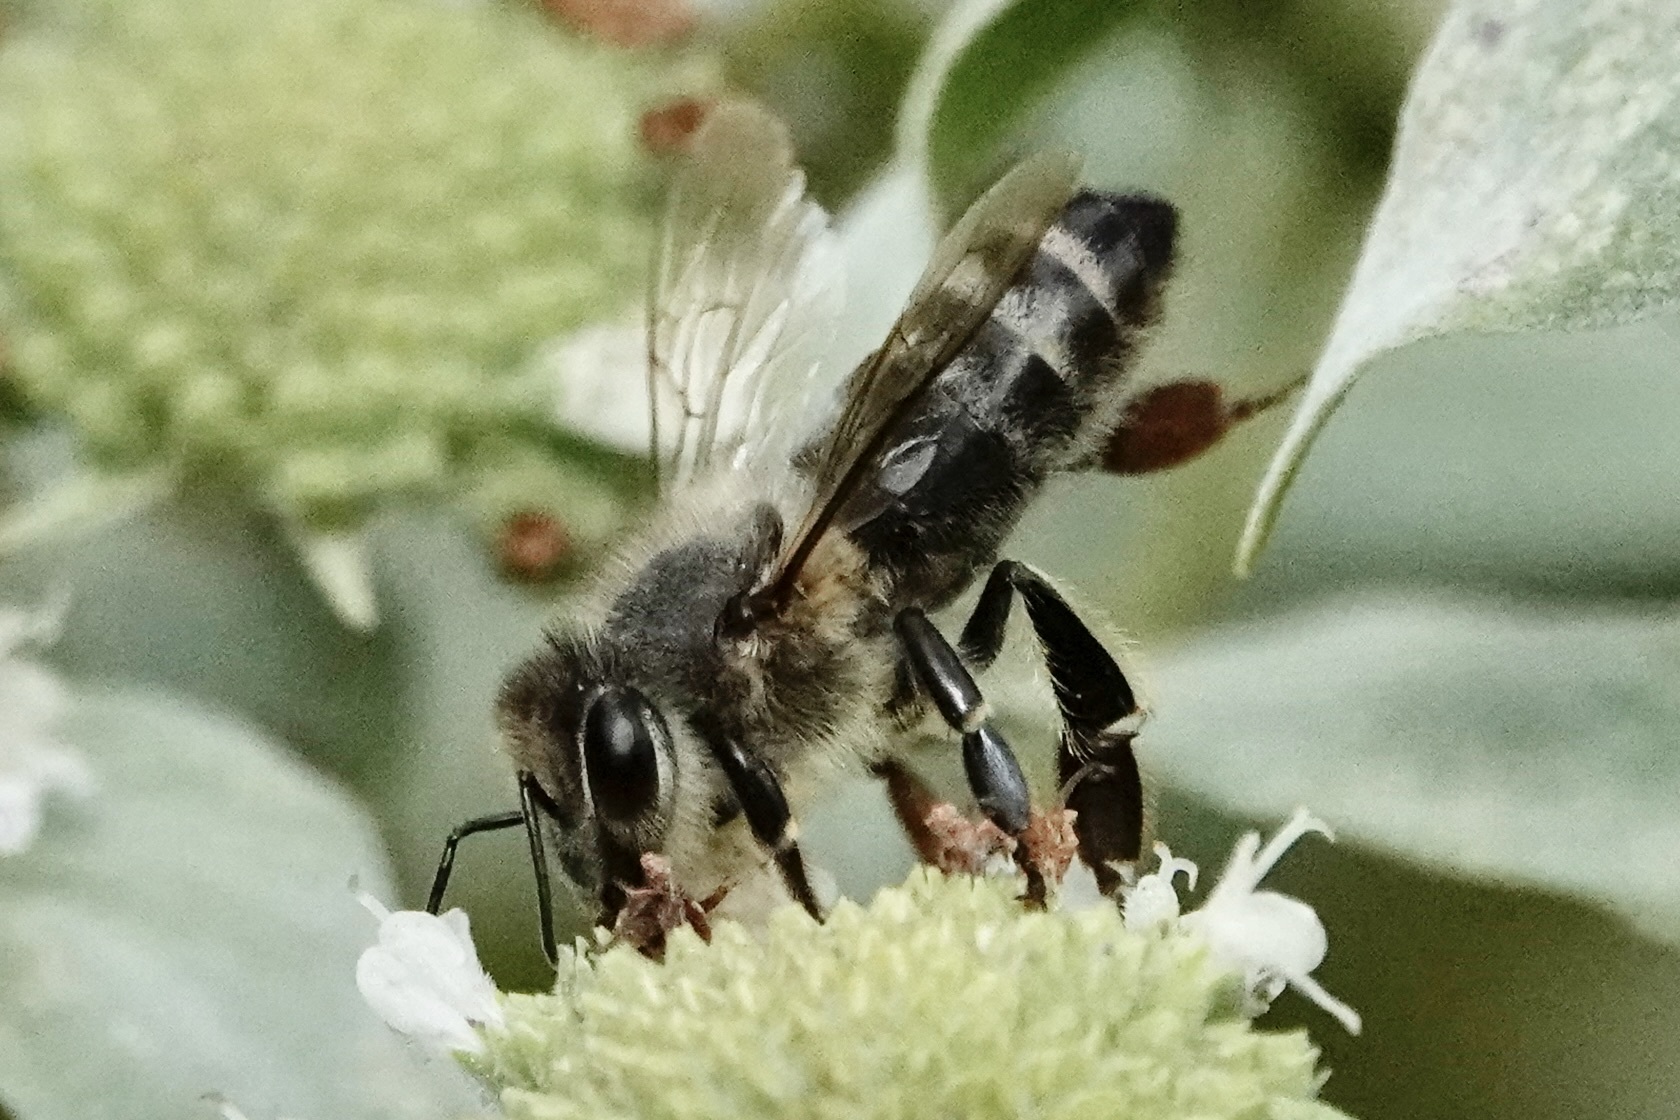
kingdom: Animalia
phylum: Arthropoda
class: Insecta
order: Hymenoptera
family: Apidae
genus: Apis
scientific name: Apis mellifera
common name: Honey bee
